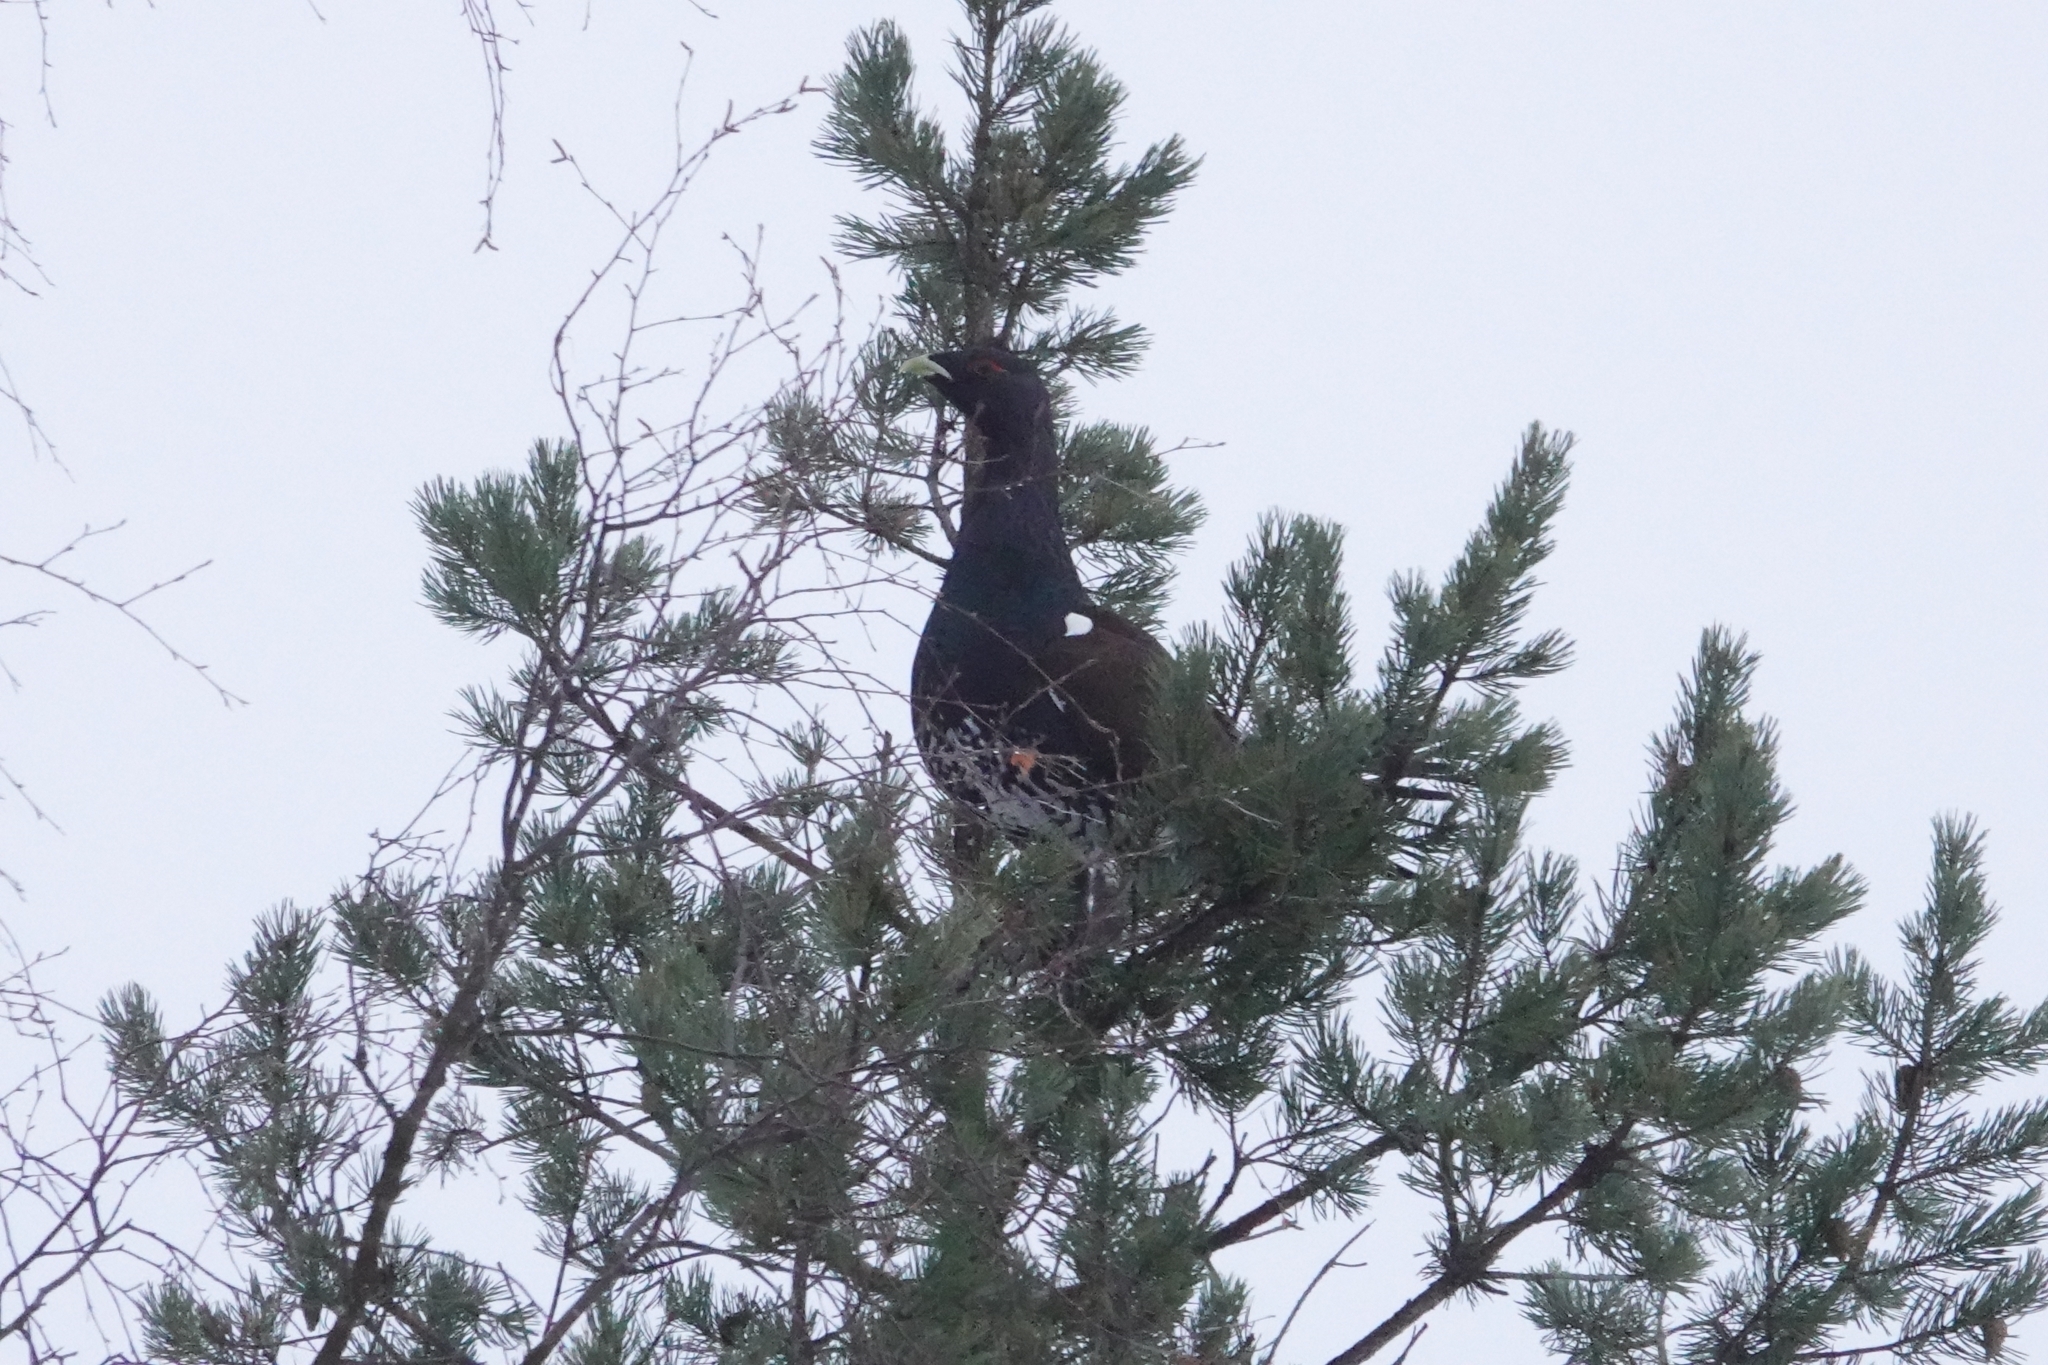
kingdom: Animalia
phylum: Chordata
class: Aves
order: Galliformes
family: Phasianidae
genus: Tetrao
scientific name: Tetrao urogallus
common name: Western capercaillie
